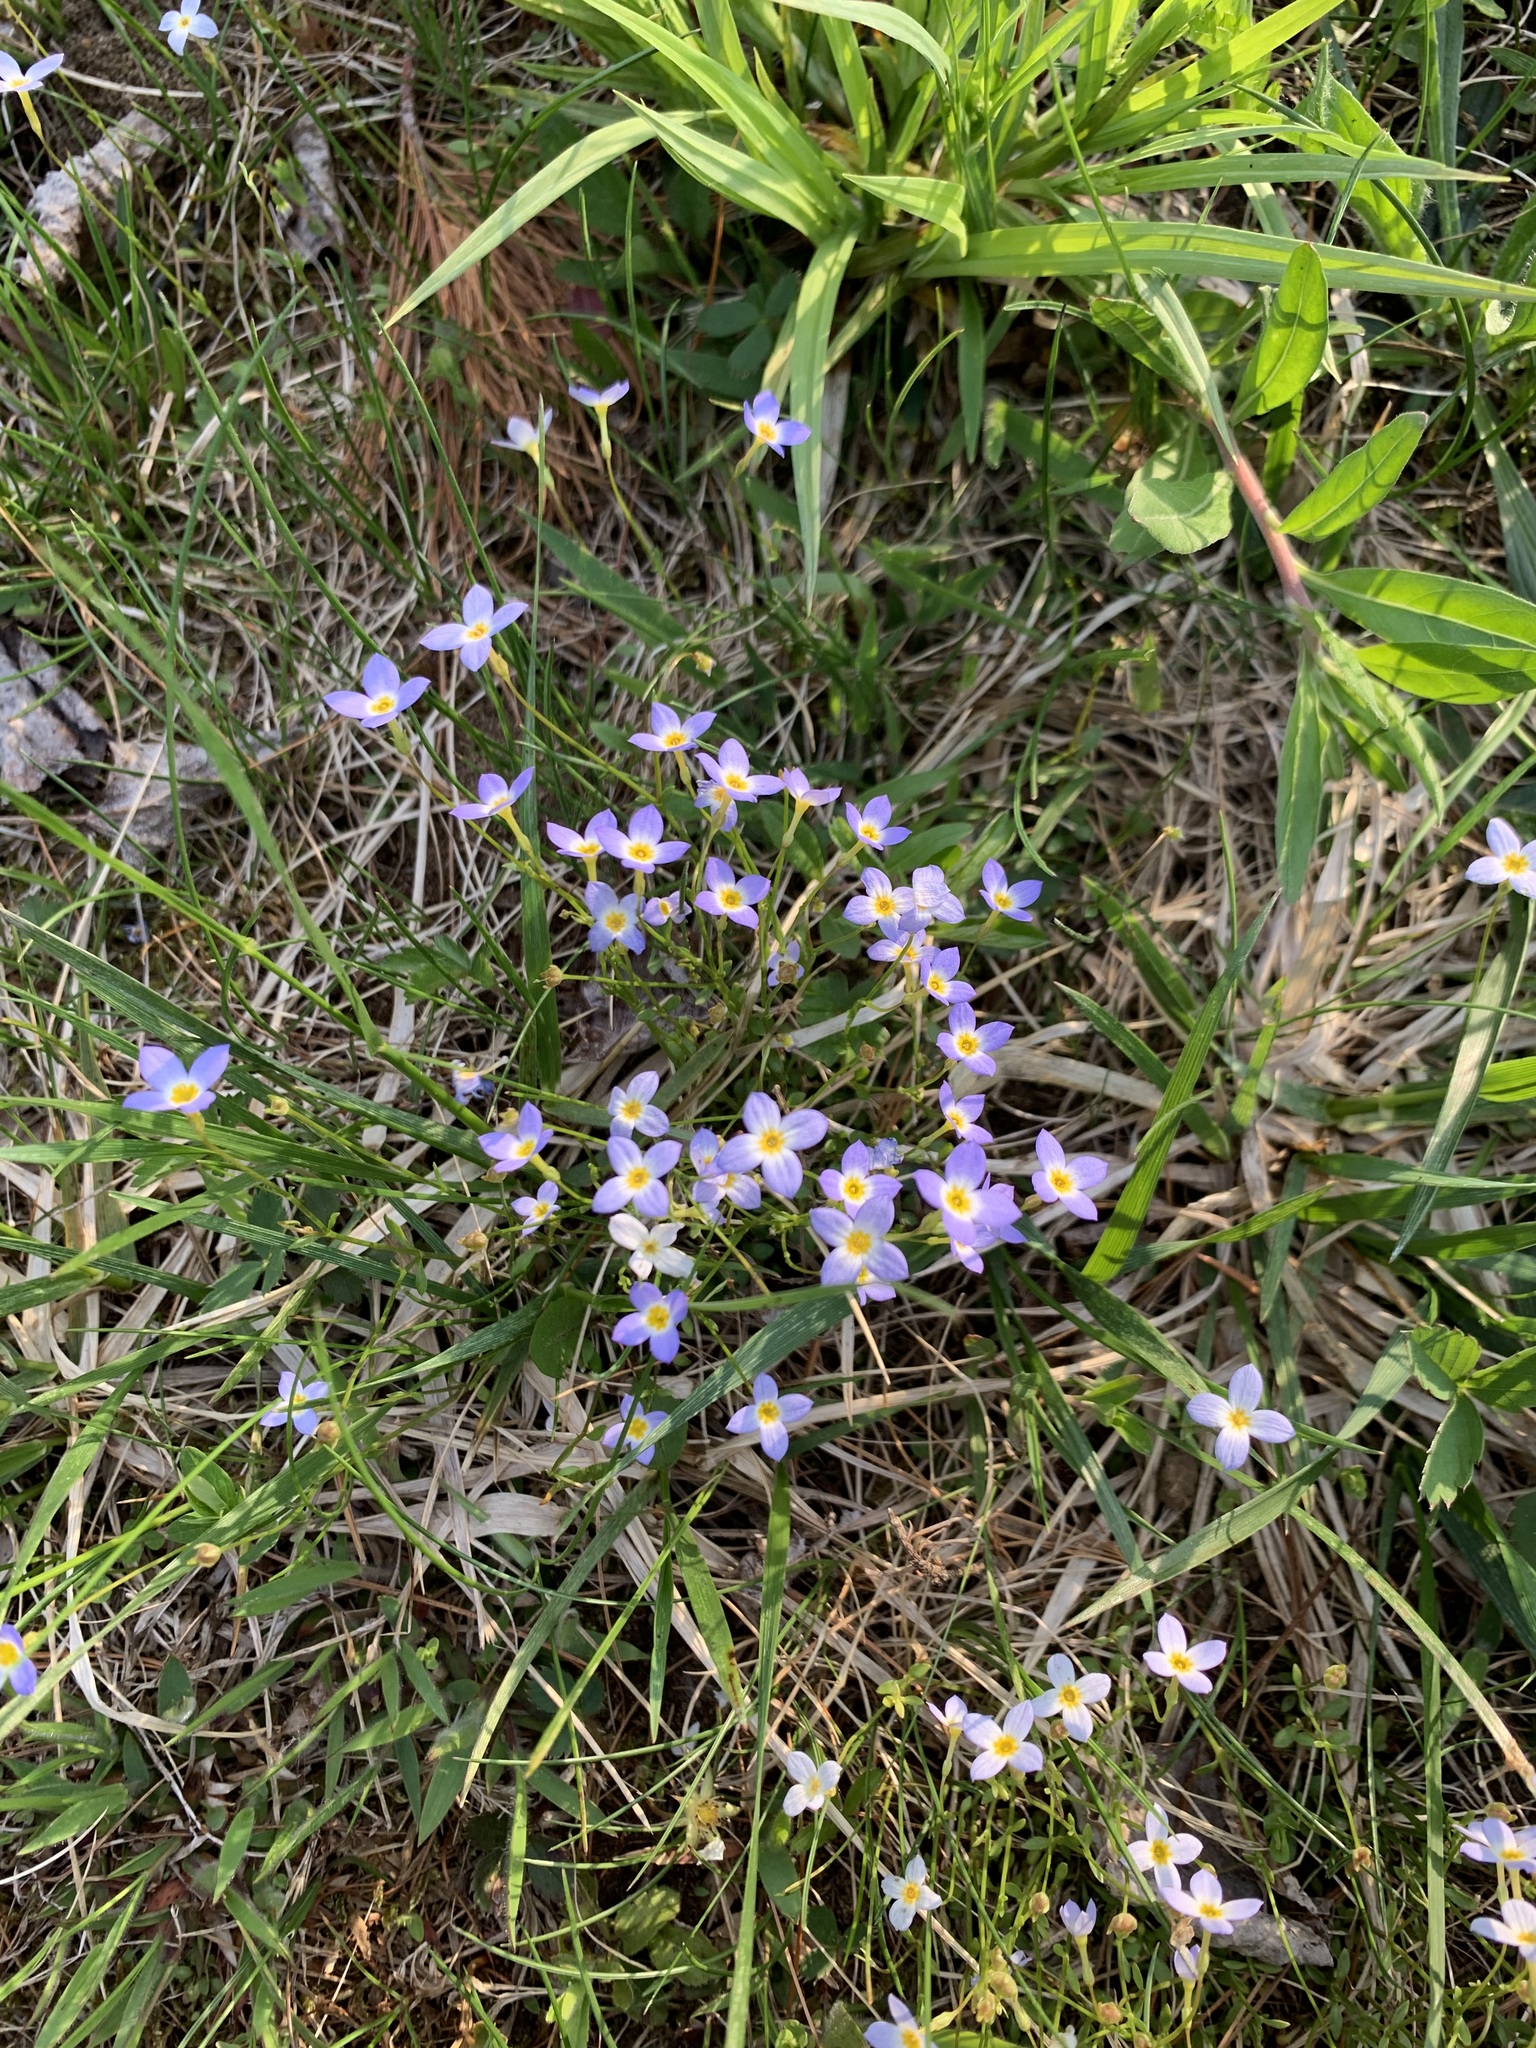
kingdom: Plantae
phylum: Tracheophyta
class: Magnoliopsida
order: Gentianales
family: Rubiaceae
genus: Houstonia
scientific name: Houstonia caerulea
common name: Bluets
